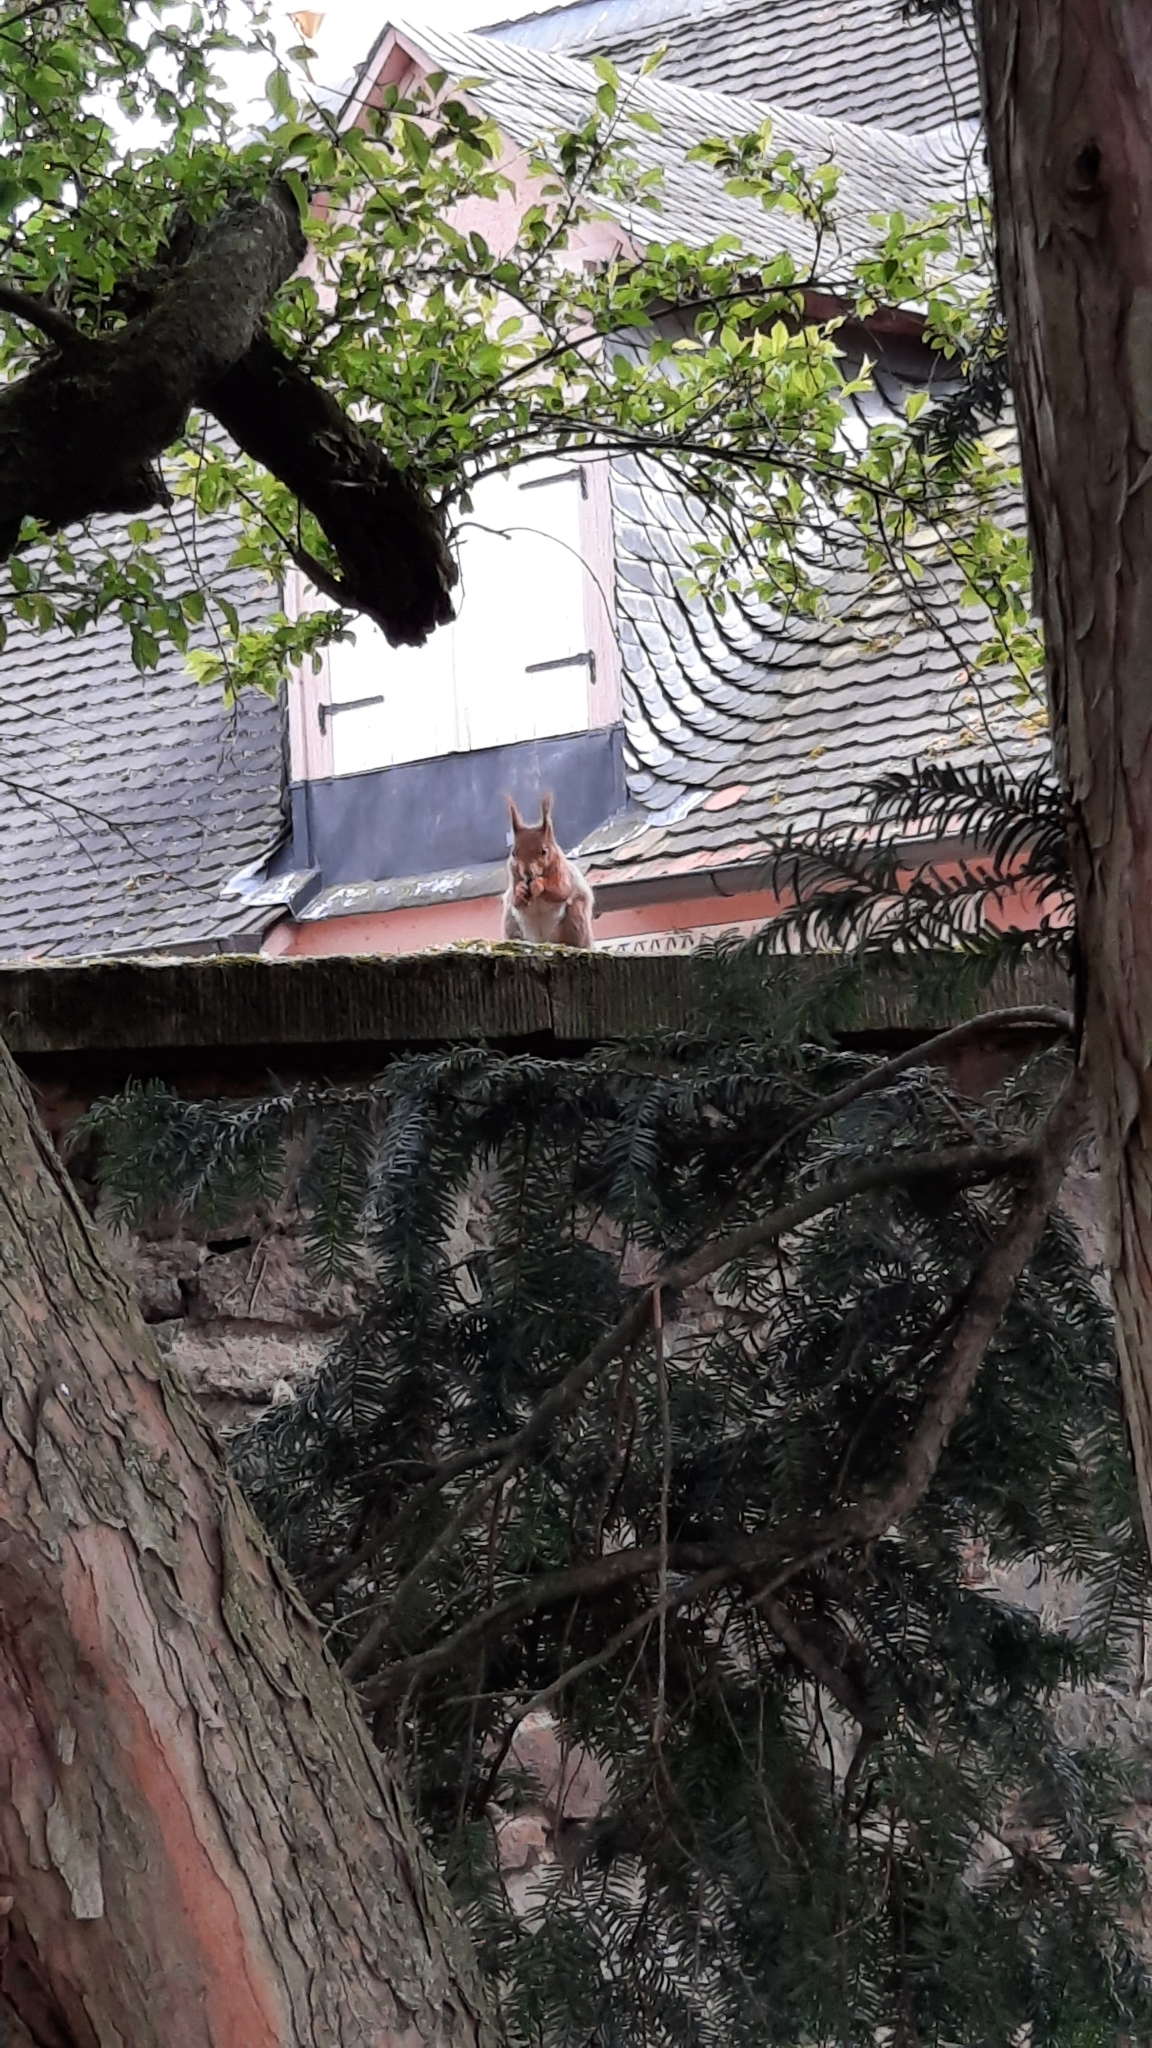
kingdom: Animalia
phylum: Chordata
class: Mammalia
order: Rodentia
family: Sciuridae
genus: Sciurus
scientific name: Sciurus vulgaris
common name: Eurasian red squirrel
